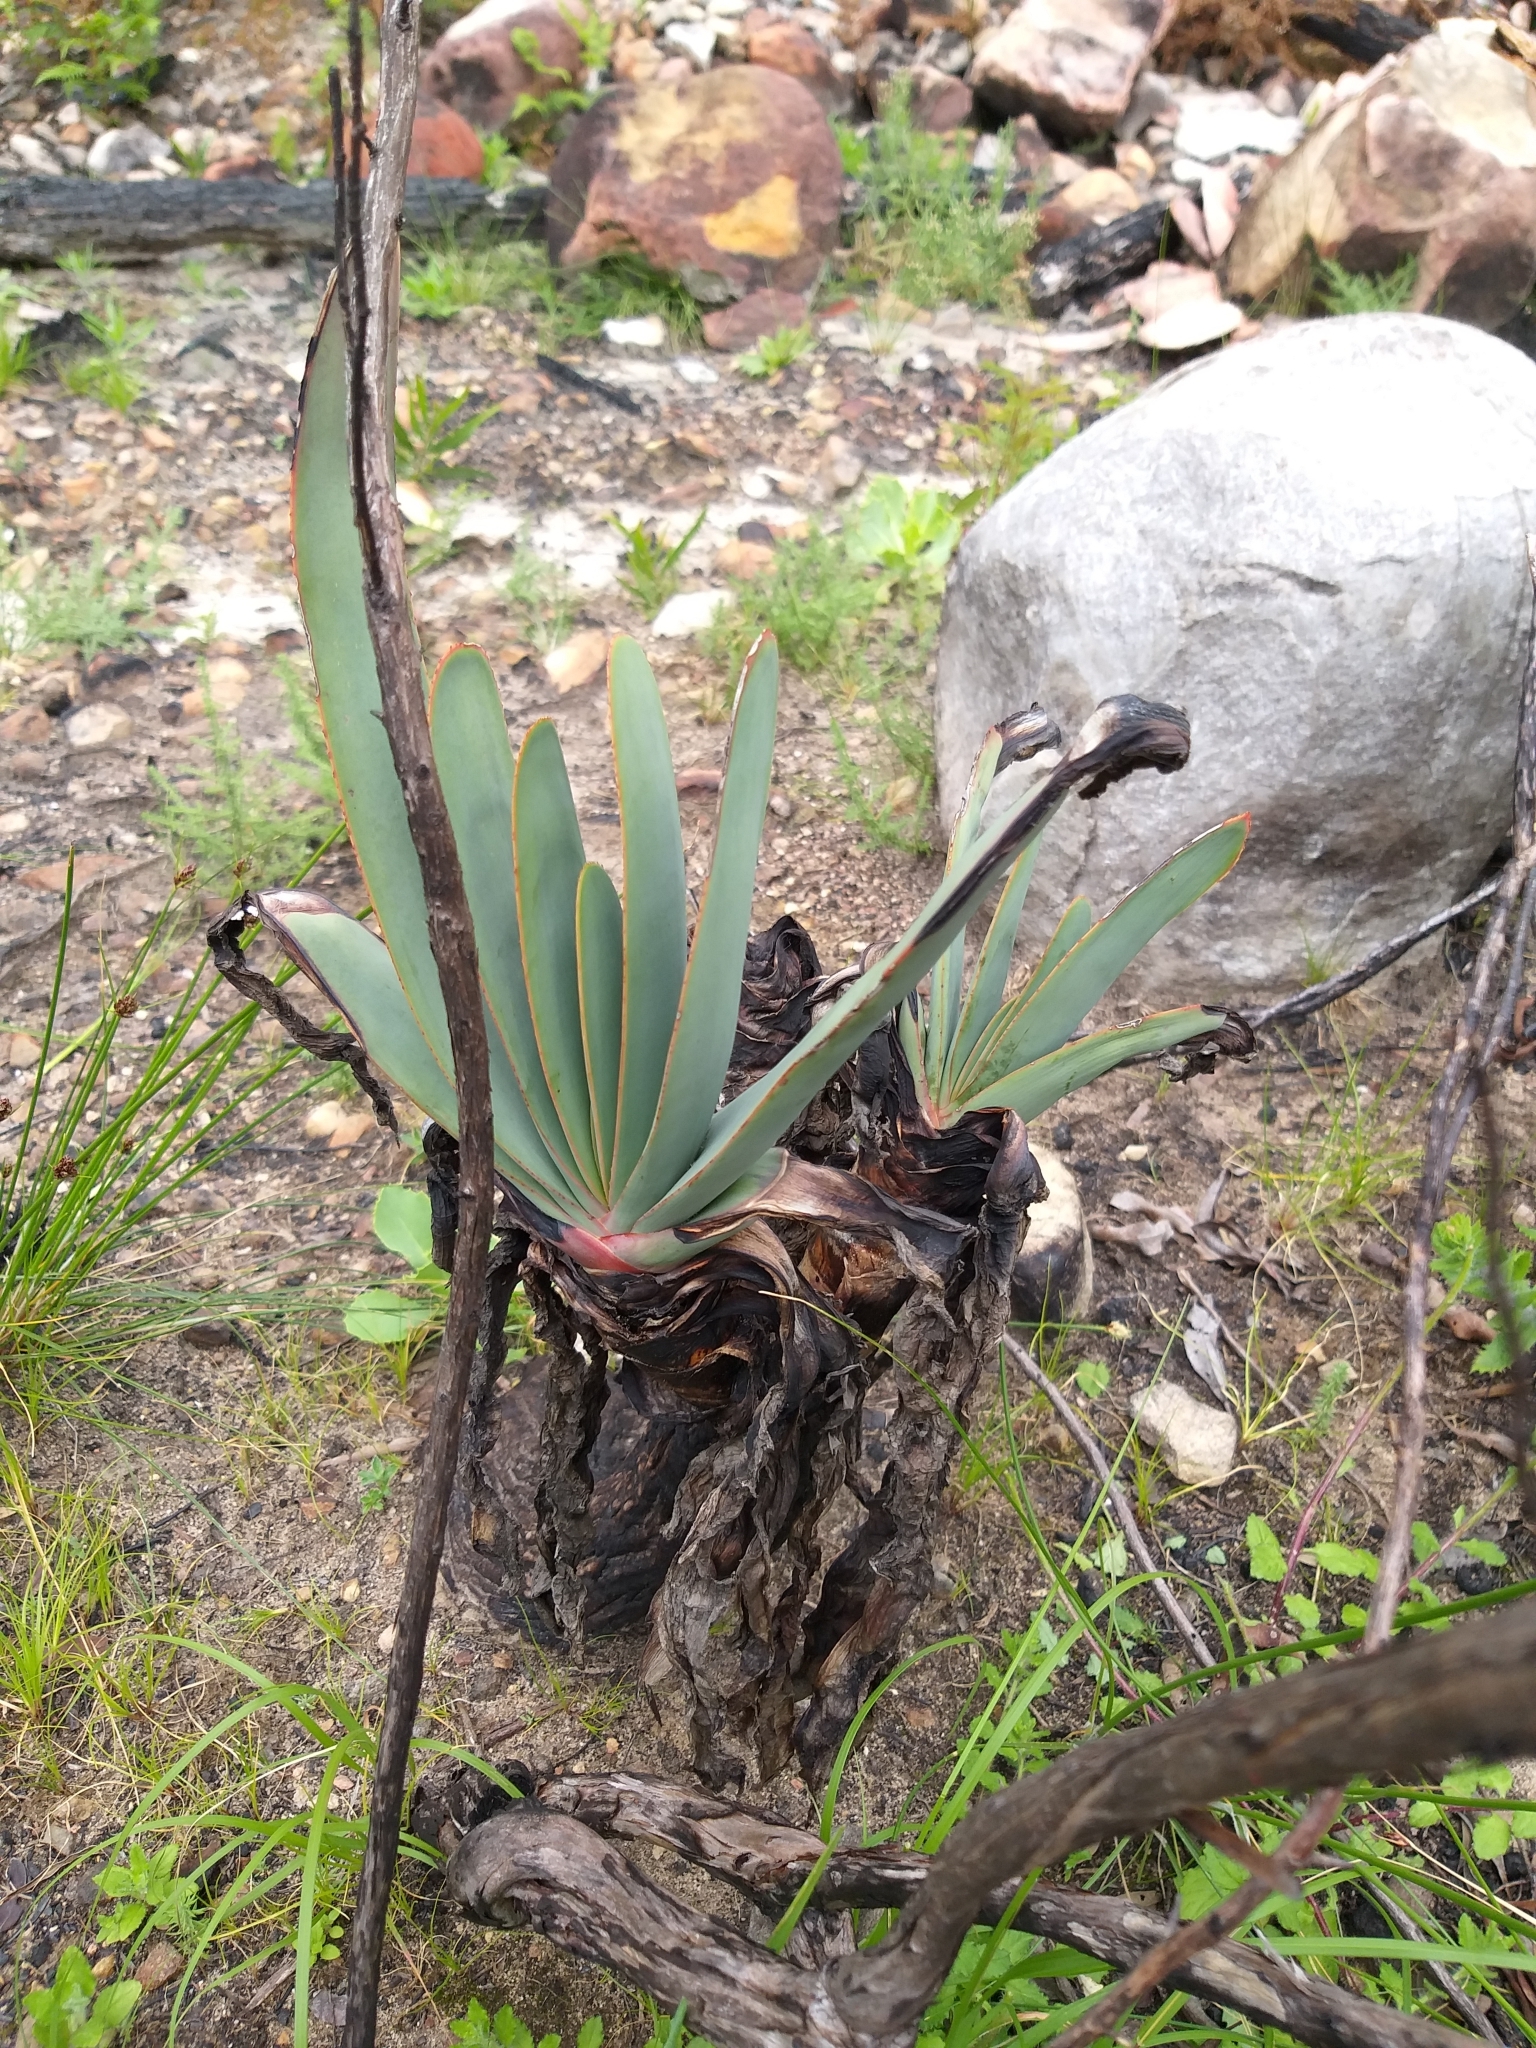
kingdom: Plantae
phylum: Tracheophyta
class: Liliopsida
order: Asparagales
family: Asphodelaceae
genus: Kumara
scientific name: Kumara plicatilis
